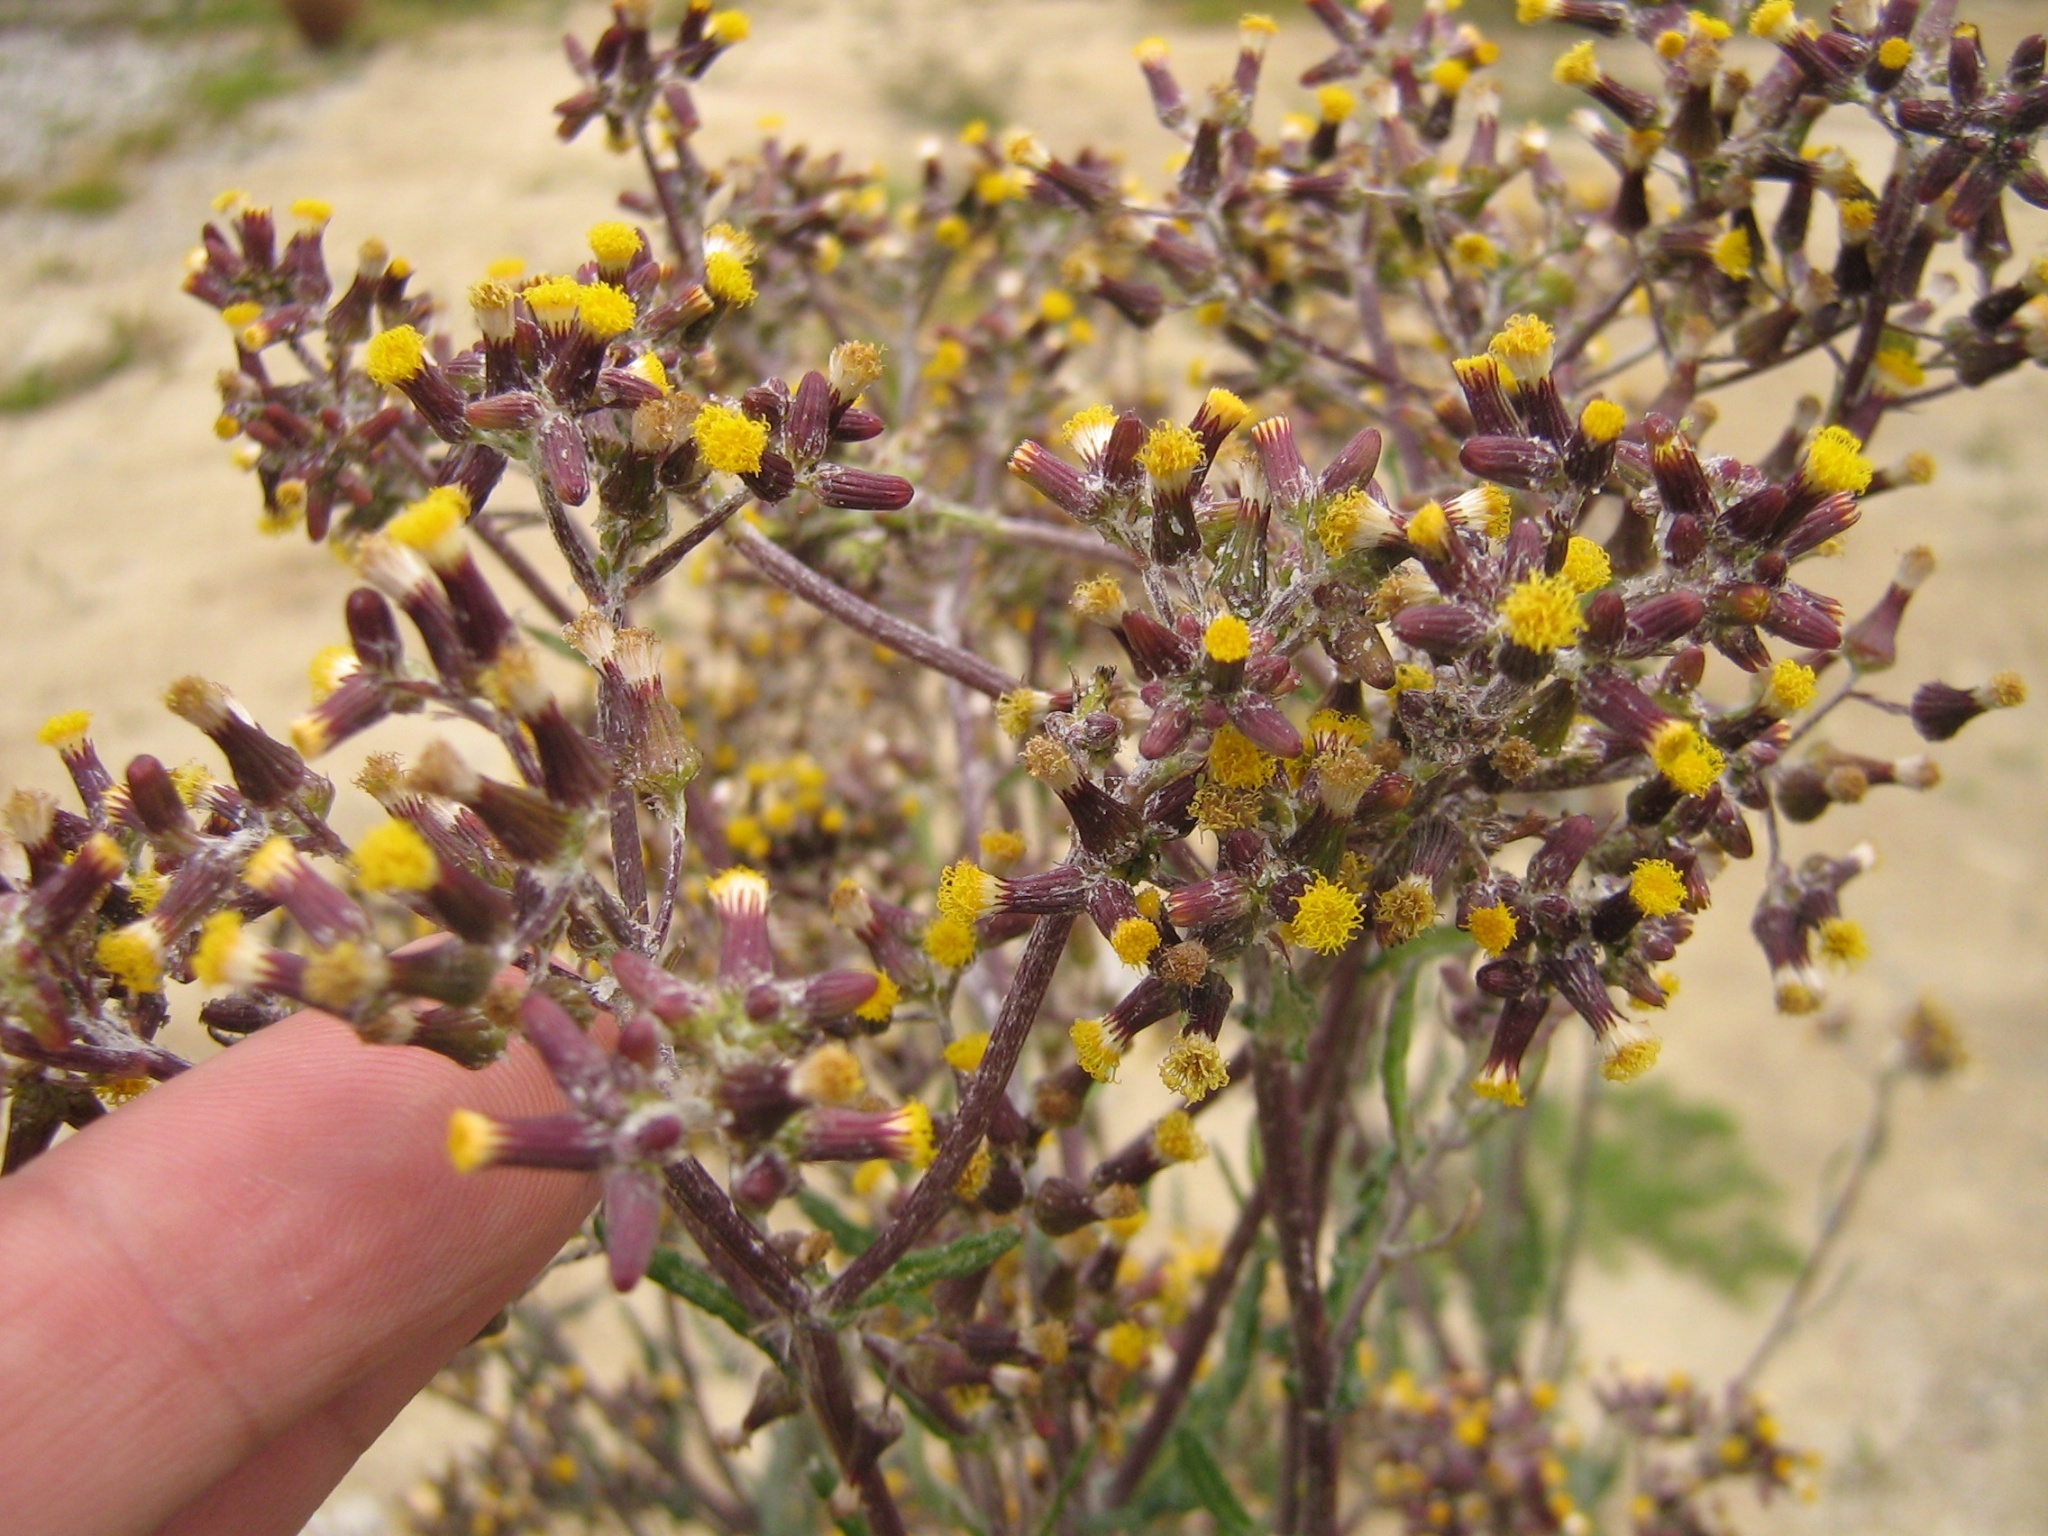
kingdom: Plantae
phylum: Tracheophyta
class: Magnoliopsida
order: Asterales
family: Asteraceae
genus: Senecio
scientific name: Senecio glomeratus
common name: Cutleaf burnweed
